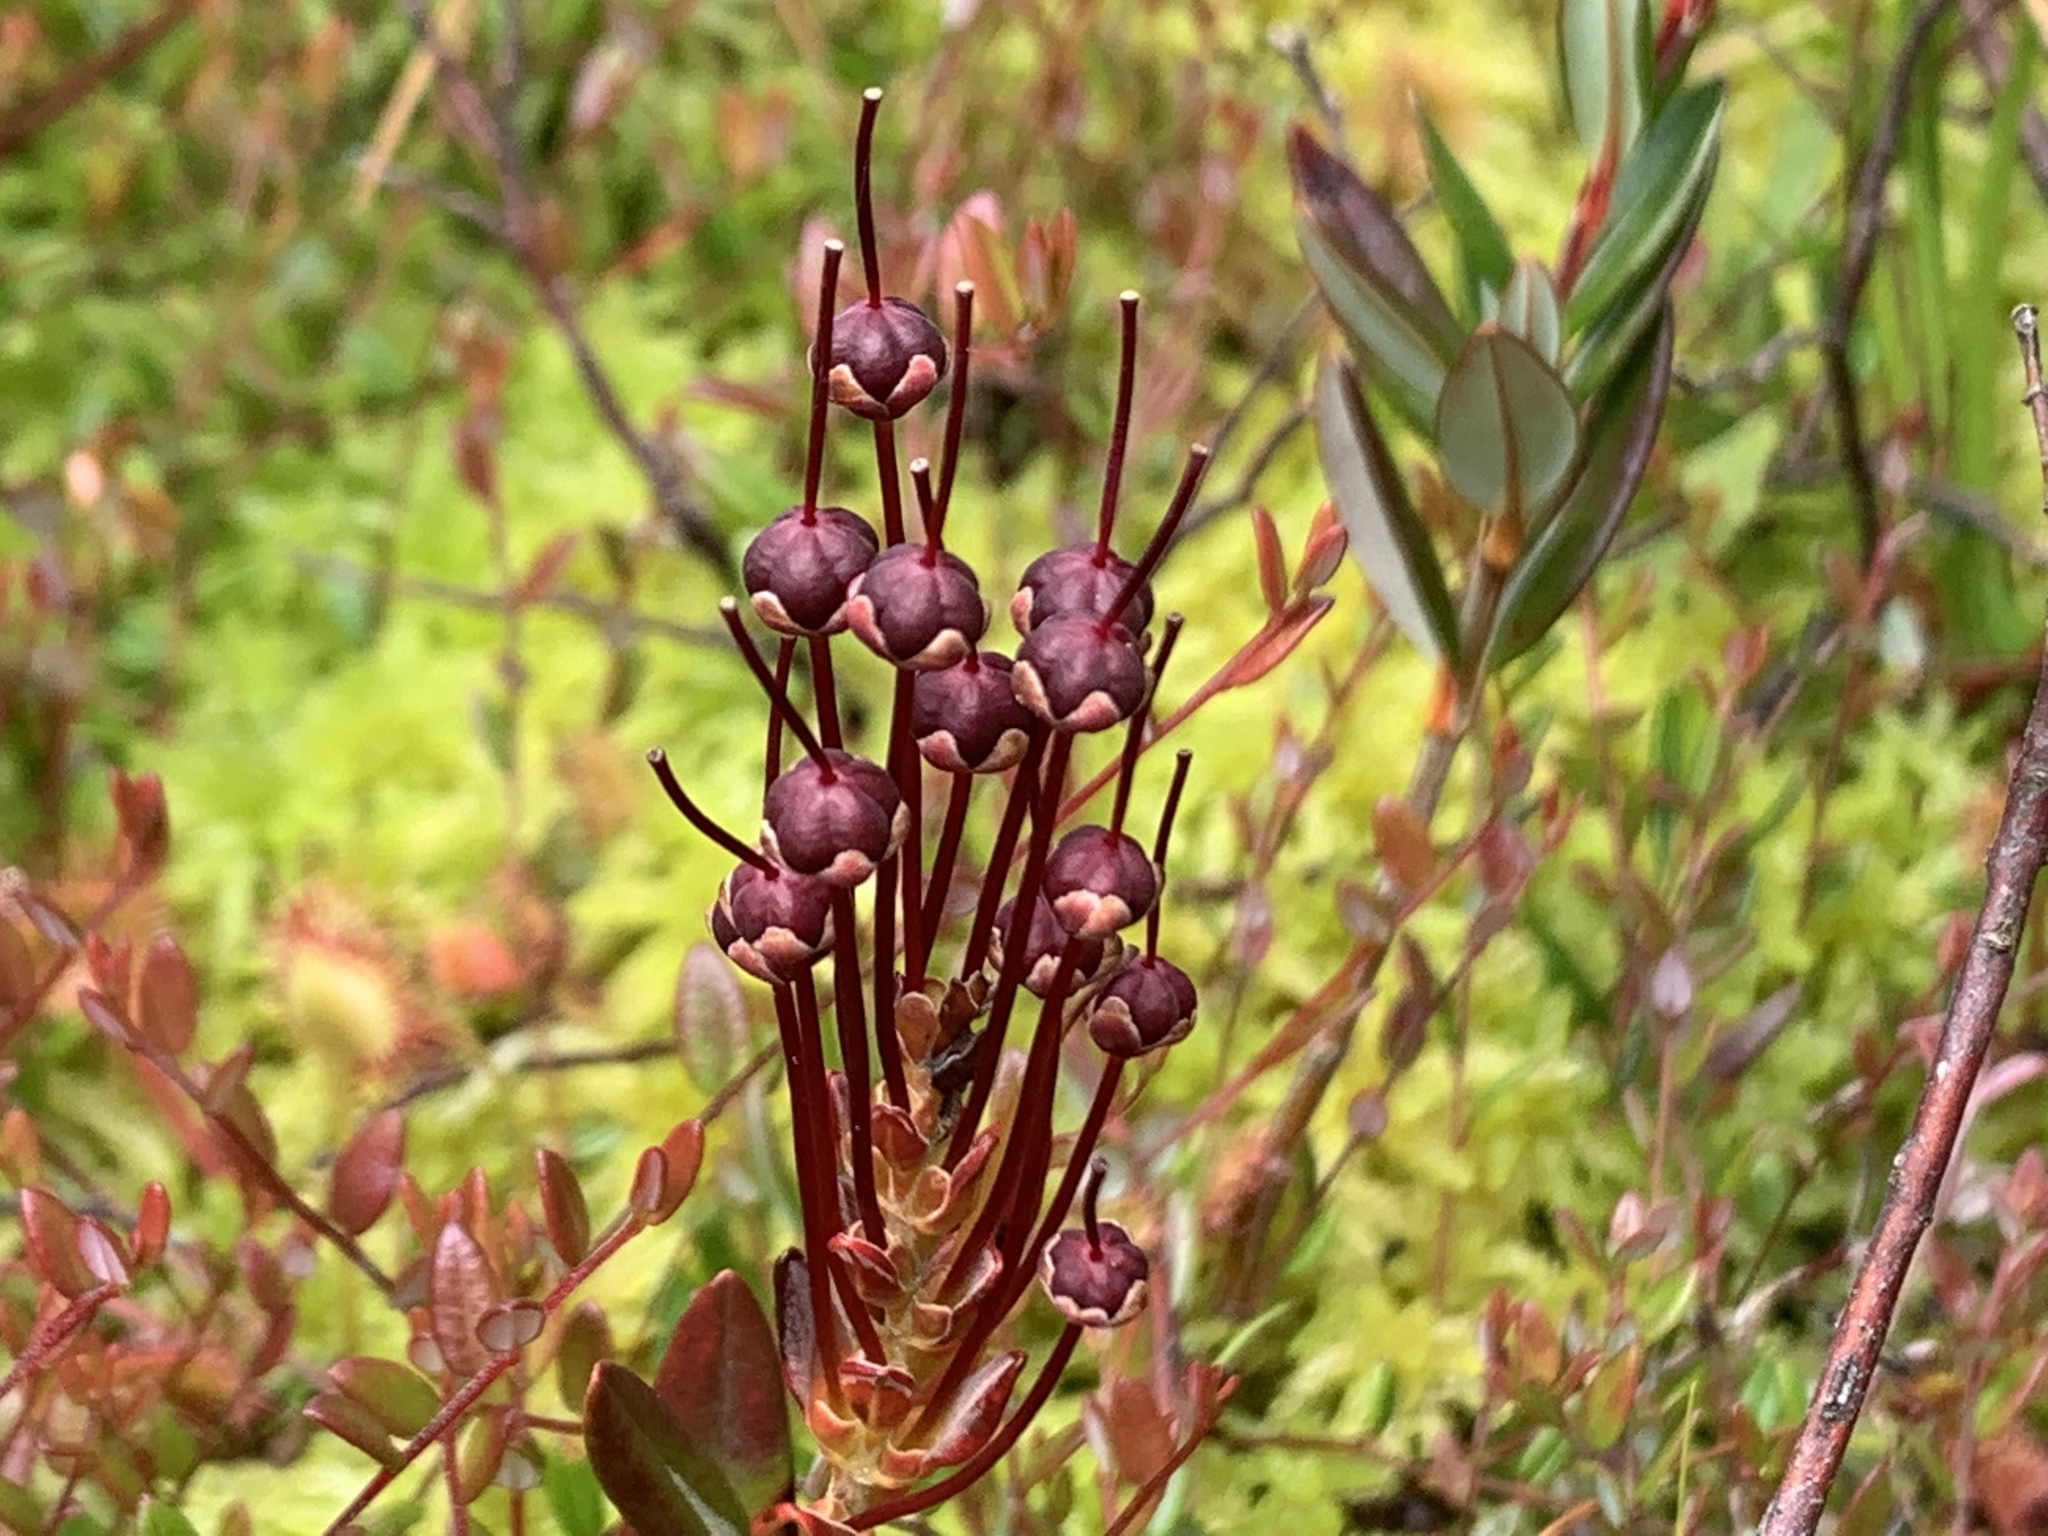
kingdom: Plantae
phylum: Tracheophyta
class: Magnoliopsida
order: Ericales
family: Ericaceae
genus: Kalmia
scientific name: Kalmia microphylla
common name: Alpine bog laurel
